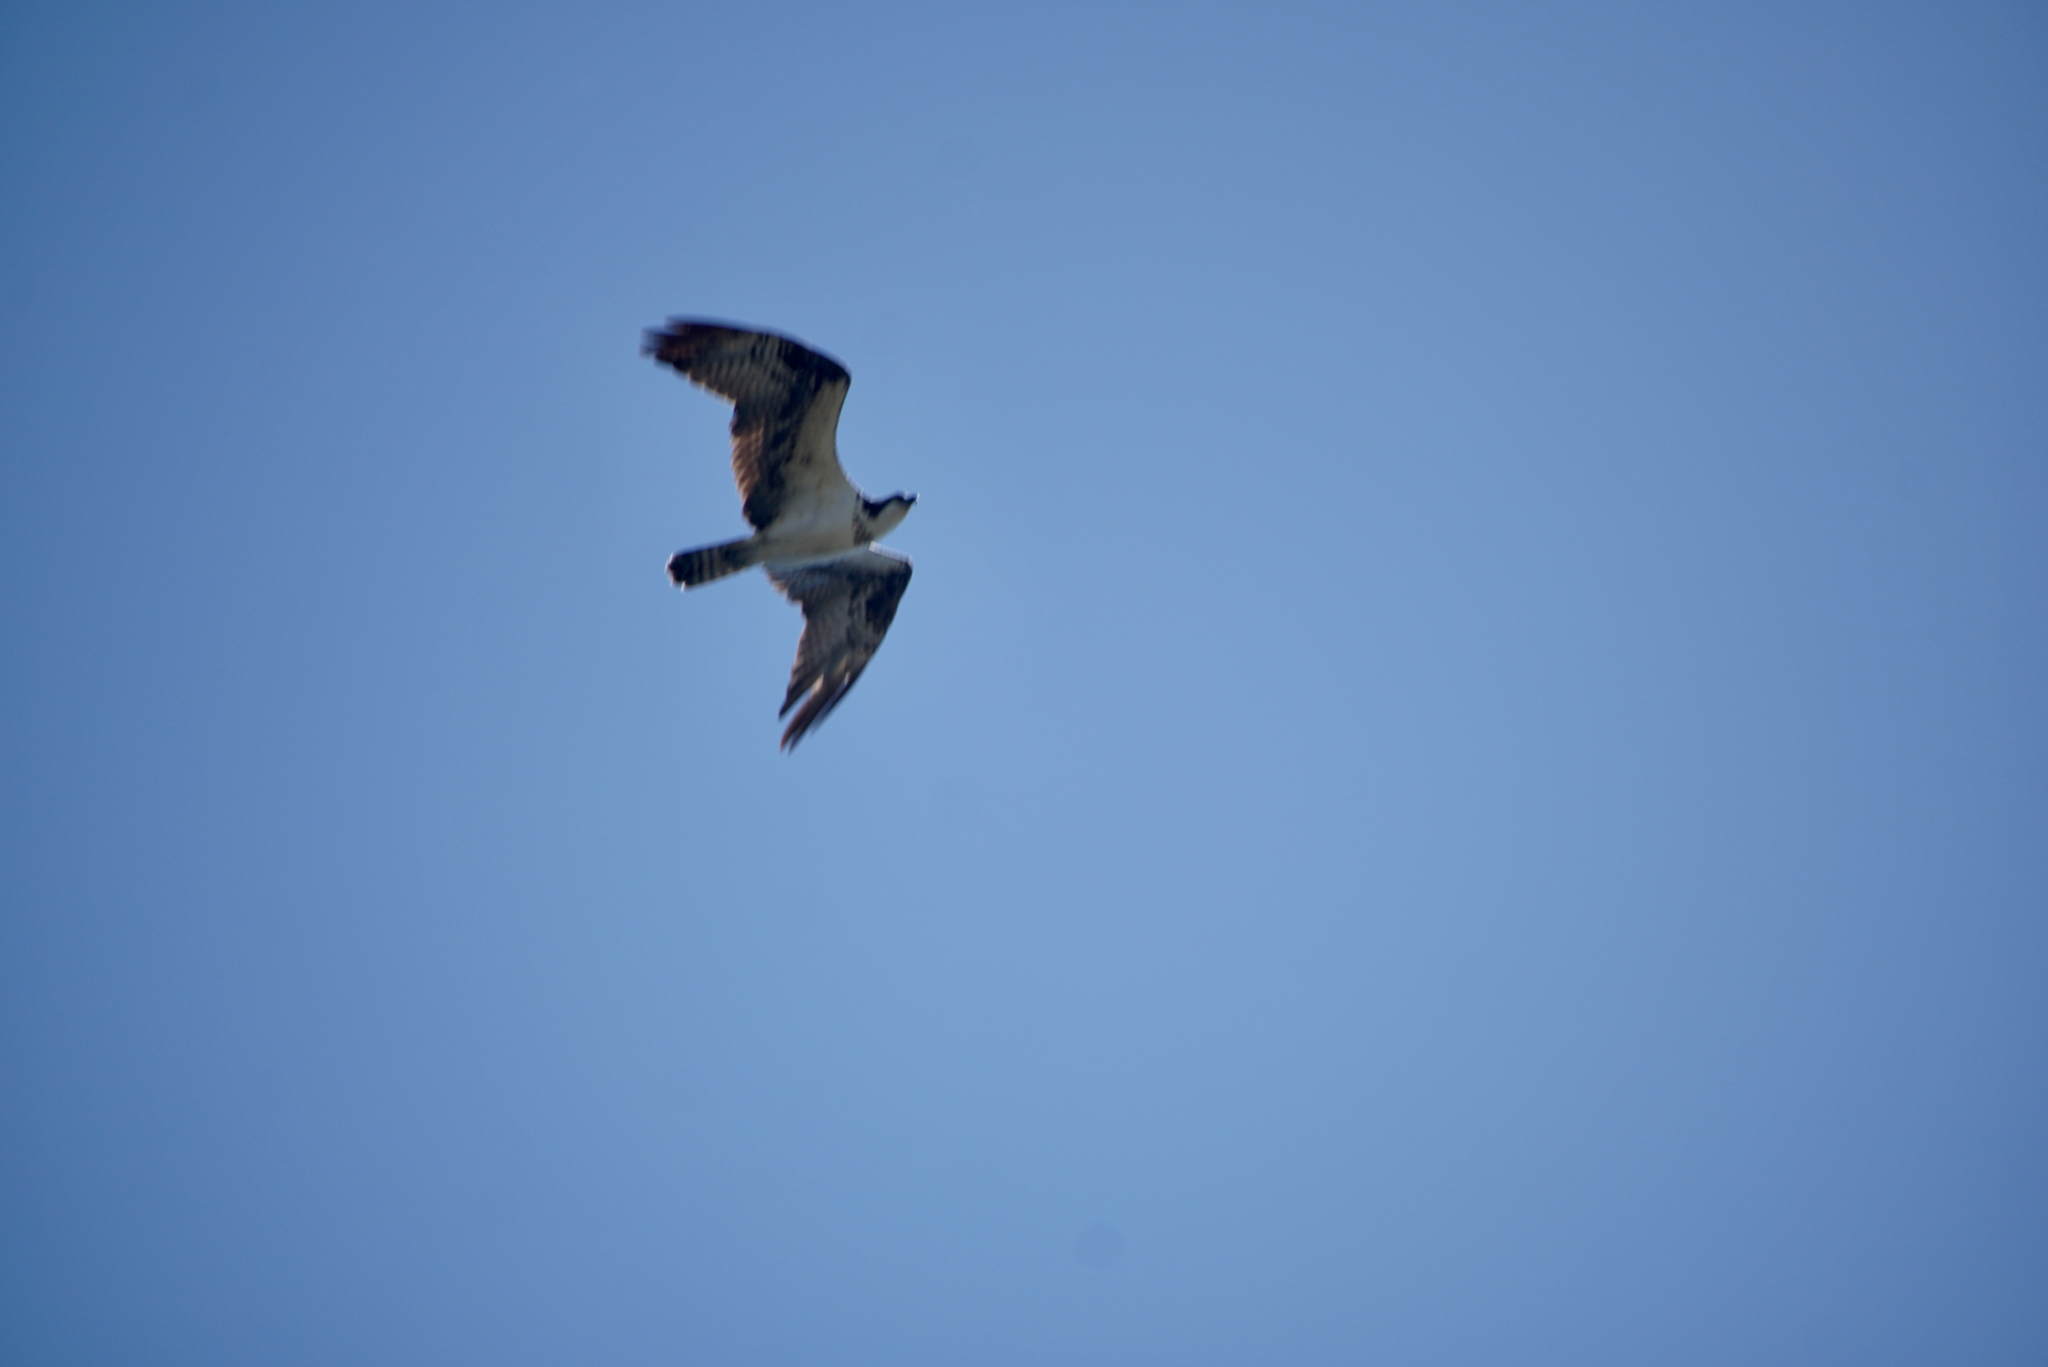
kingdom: Animalia
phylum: Chordata
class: Aves
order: Accipitriformes
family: Pandionidae
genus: Pandion
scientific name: Pandion haliaetus
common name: Osprey
